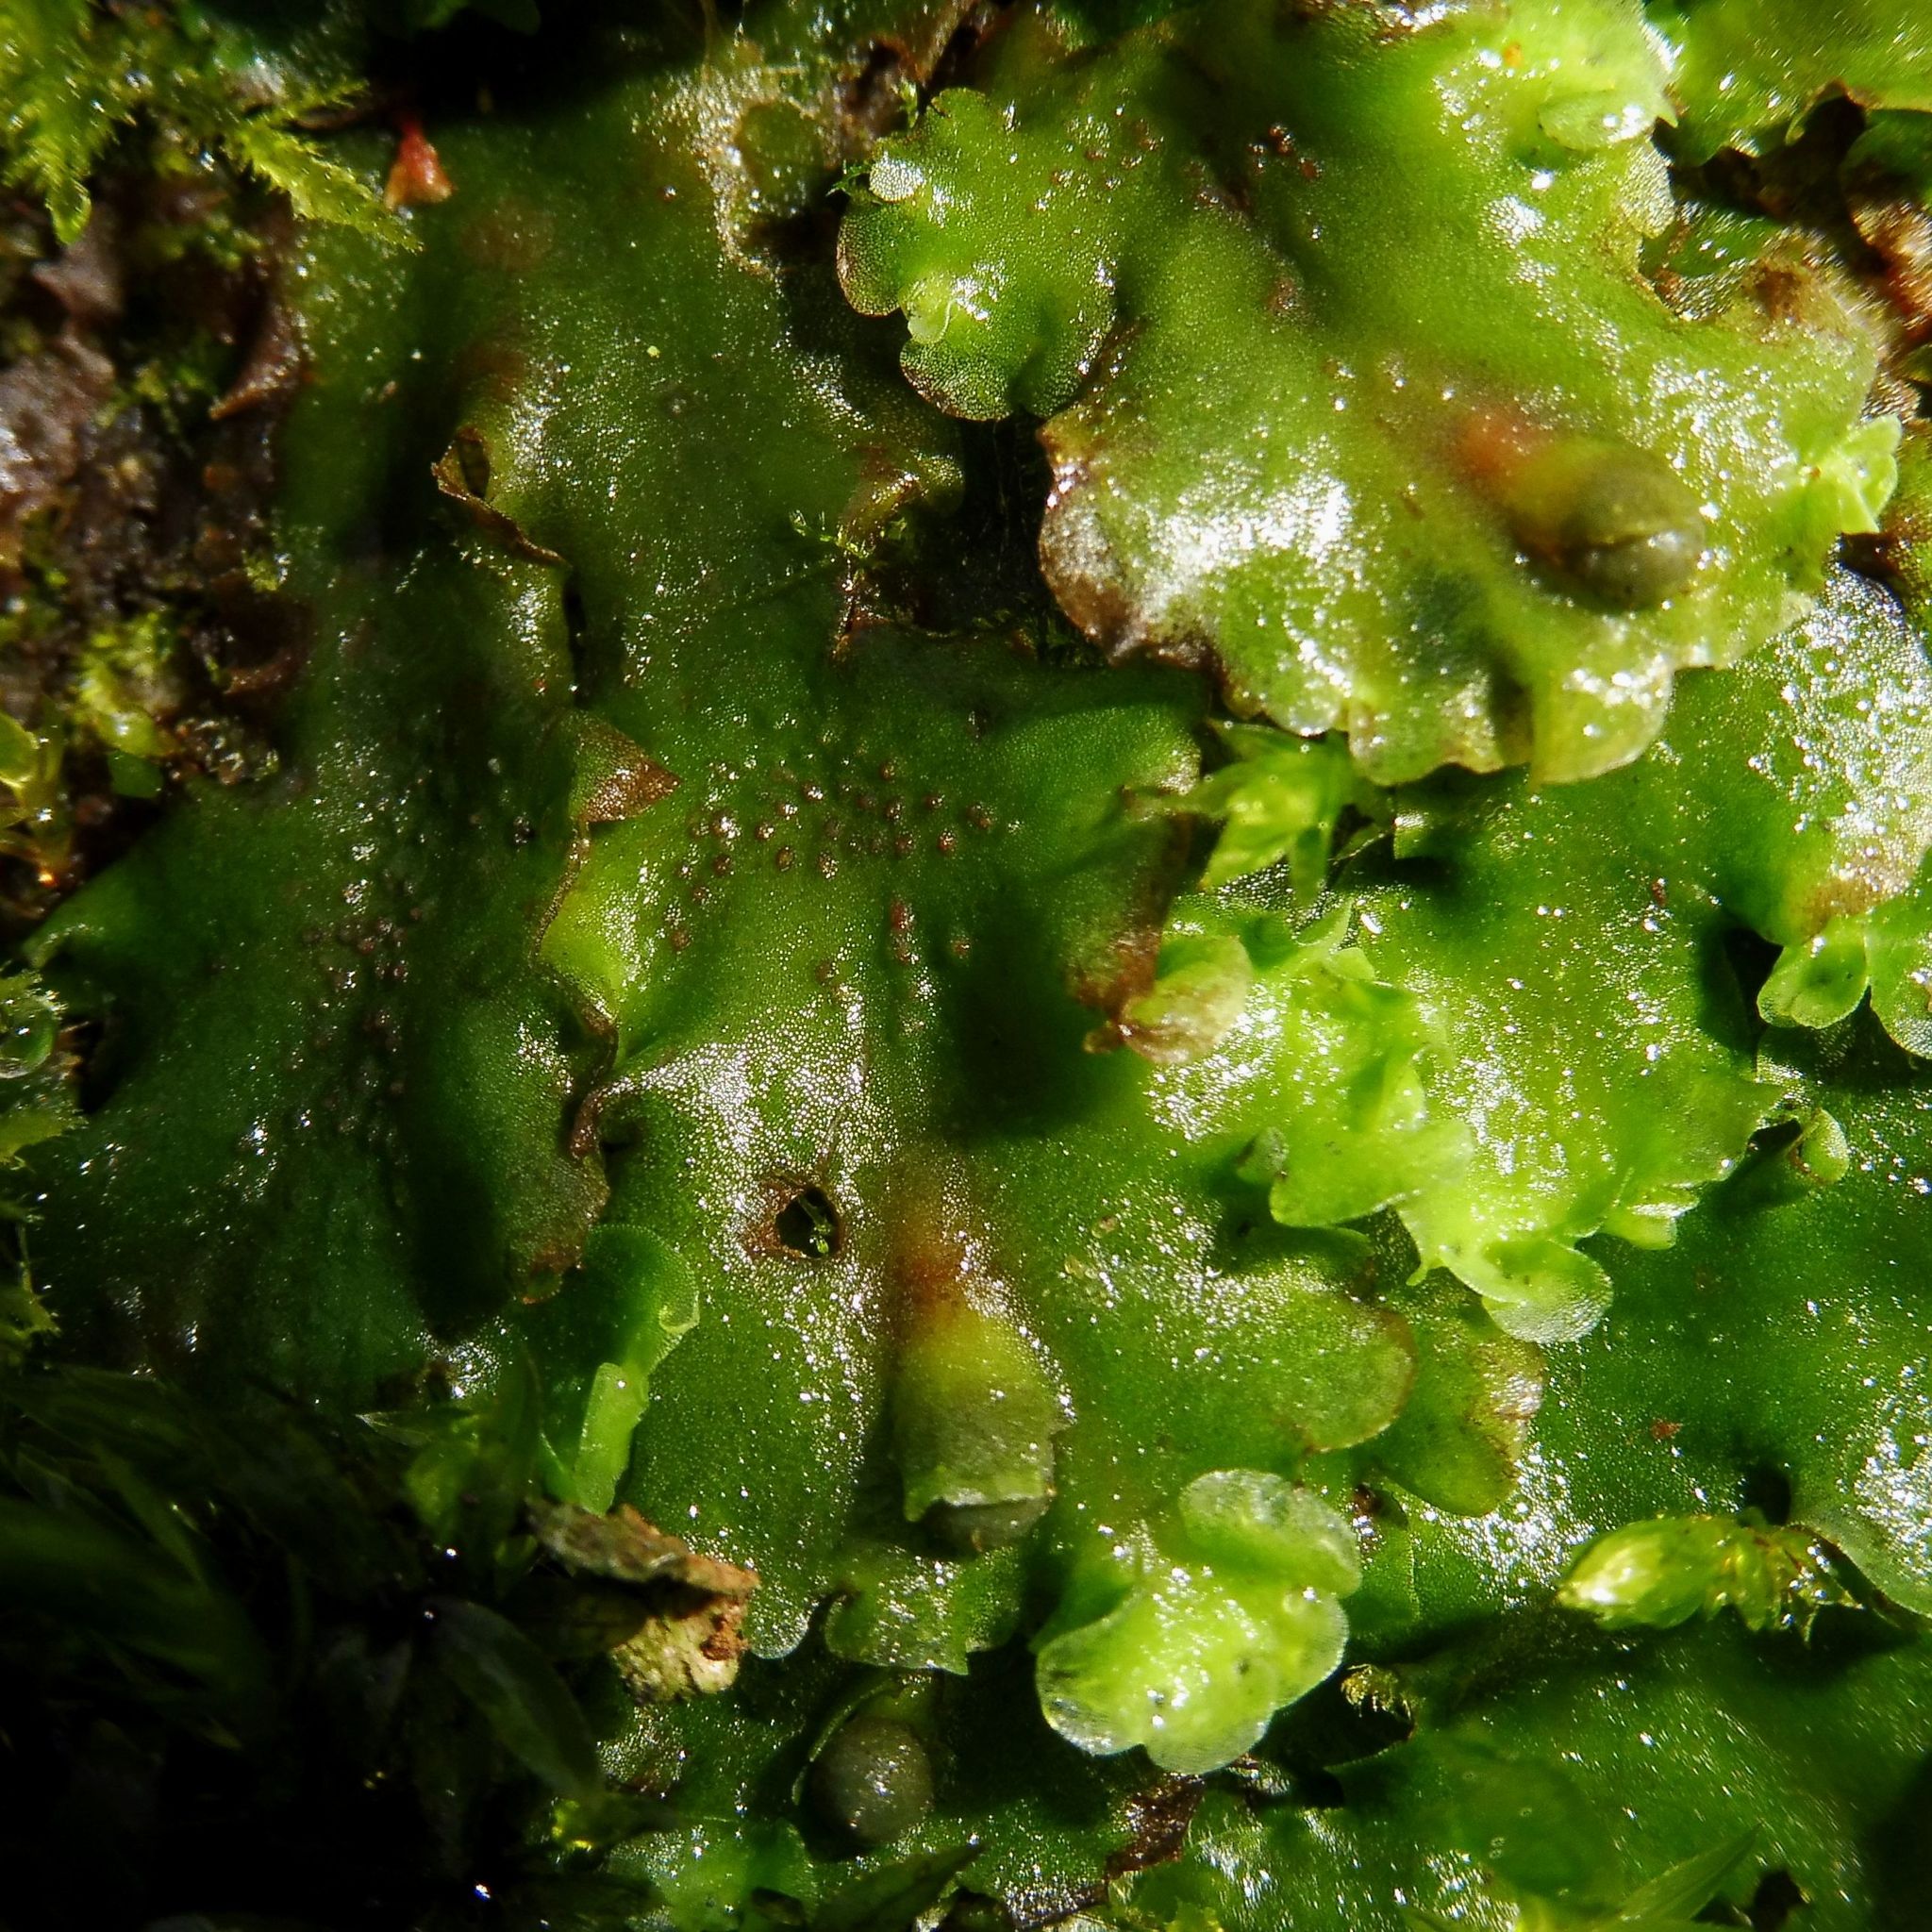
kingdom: Plantae
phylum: Marchantiophyta
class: Jungermanniopsida
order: Pelliales
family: Pelliaceae
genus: Pellia
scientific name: Pellia epiphylla
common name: Common pellia
